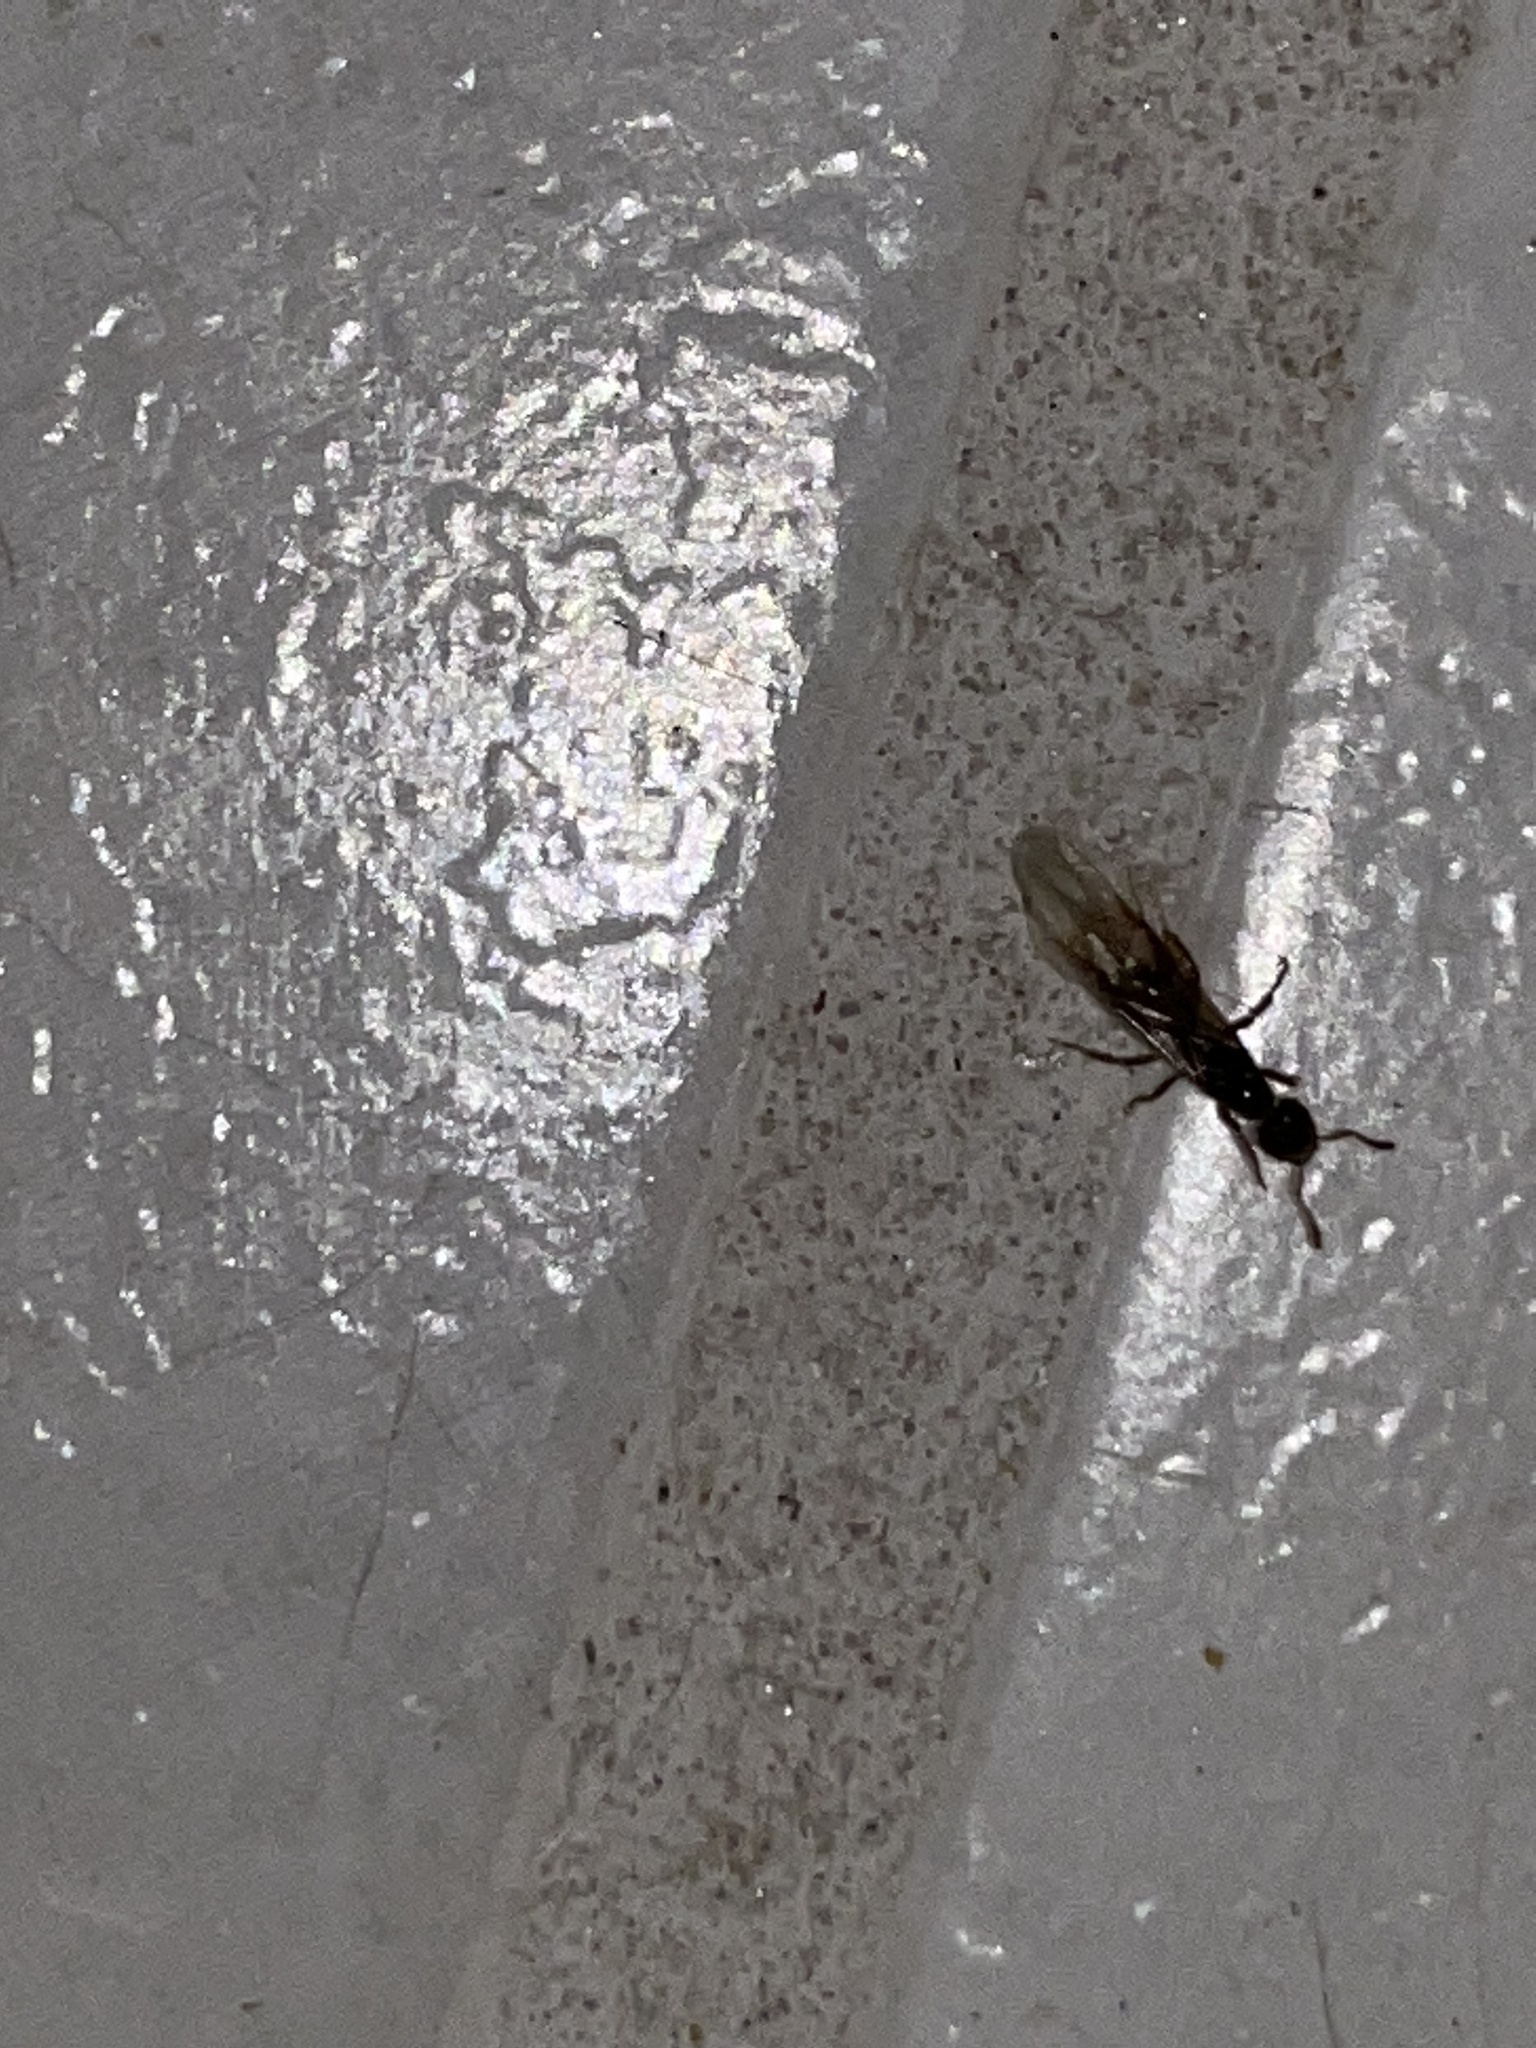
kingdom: Animalia
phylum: Arthropoda
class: Insecta
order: Hymenoptera
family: Formicidae
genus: Lasius
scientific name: Lasius claviger
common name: Common citronella ant
